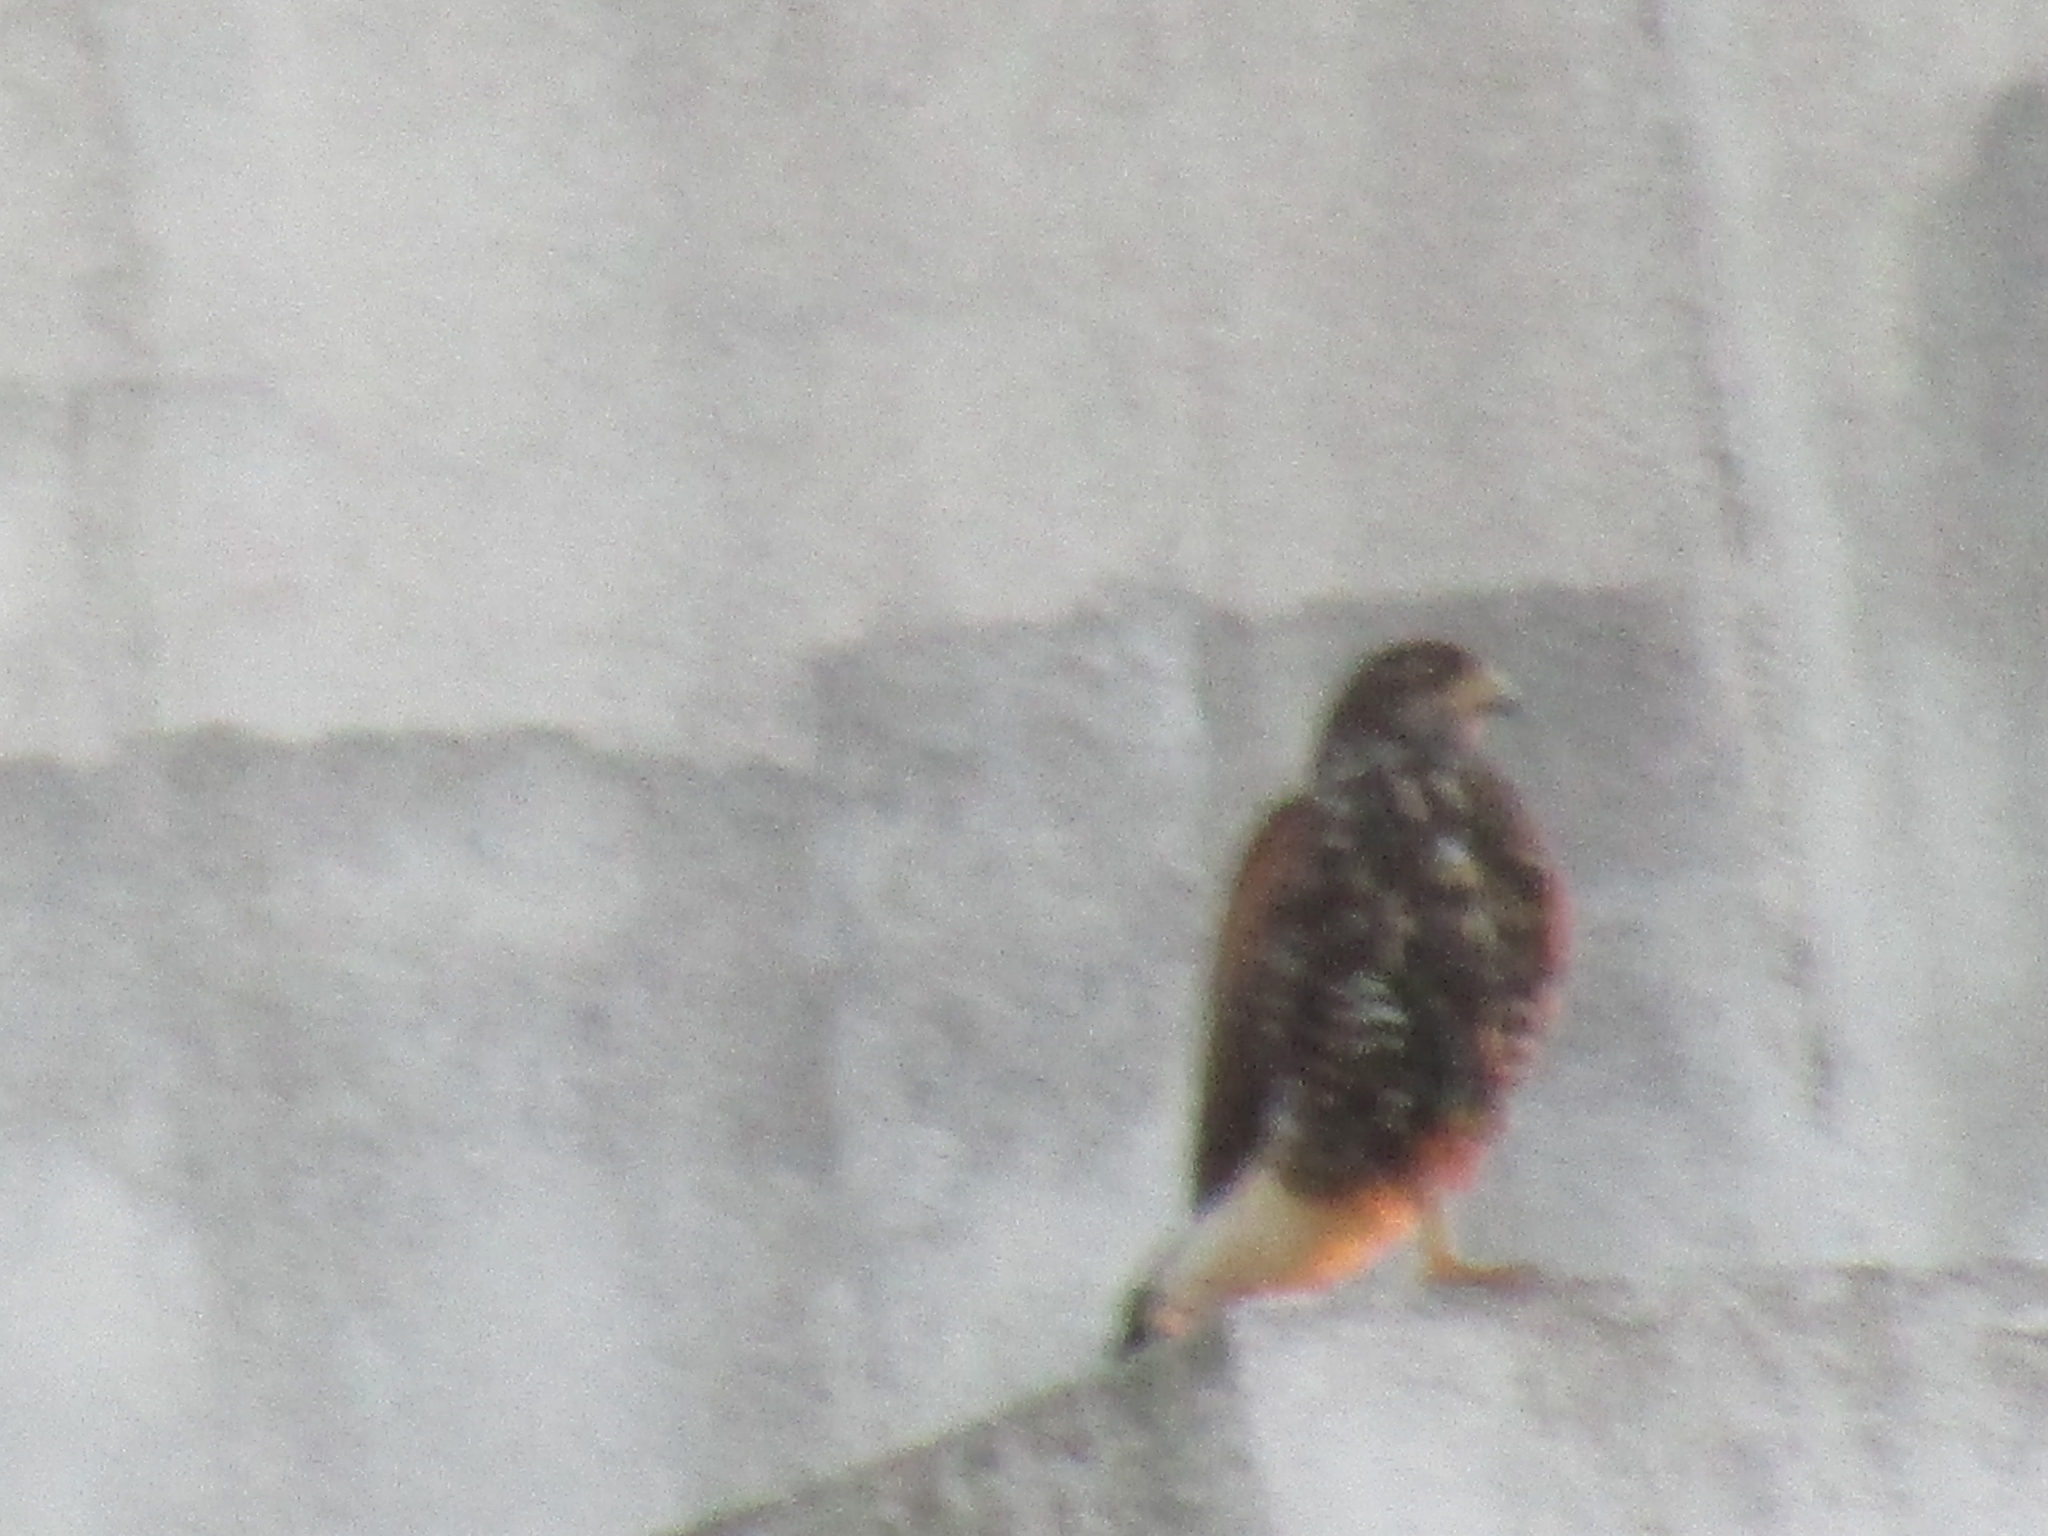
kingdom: Animalia
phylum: Chordata
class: Aves
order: Accipitriformes
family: Accipitridae
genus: Parabuteo
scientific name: Parabuteo unicinctus
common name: Harris's hawk
